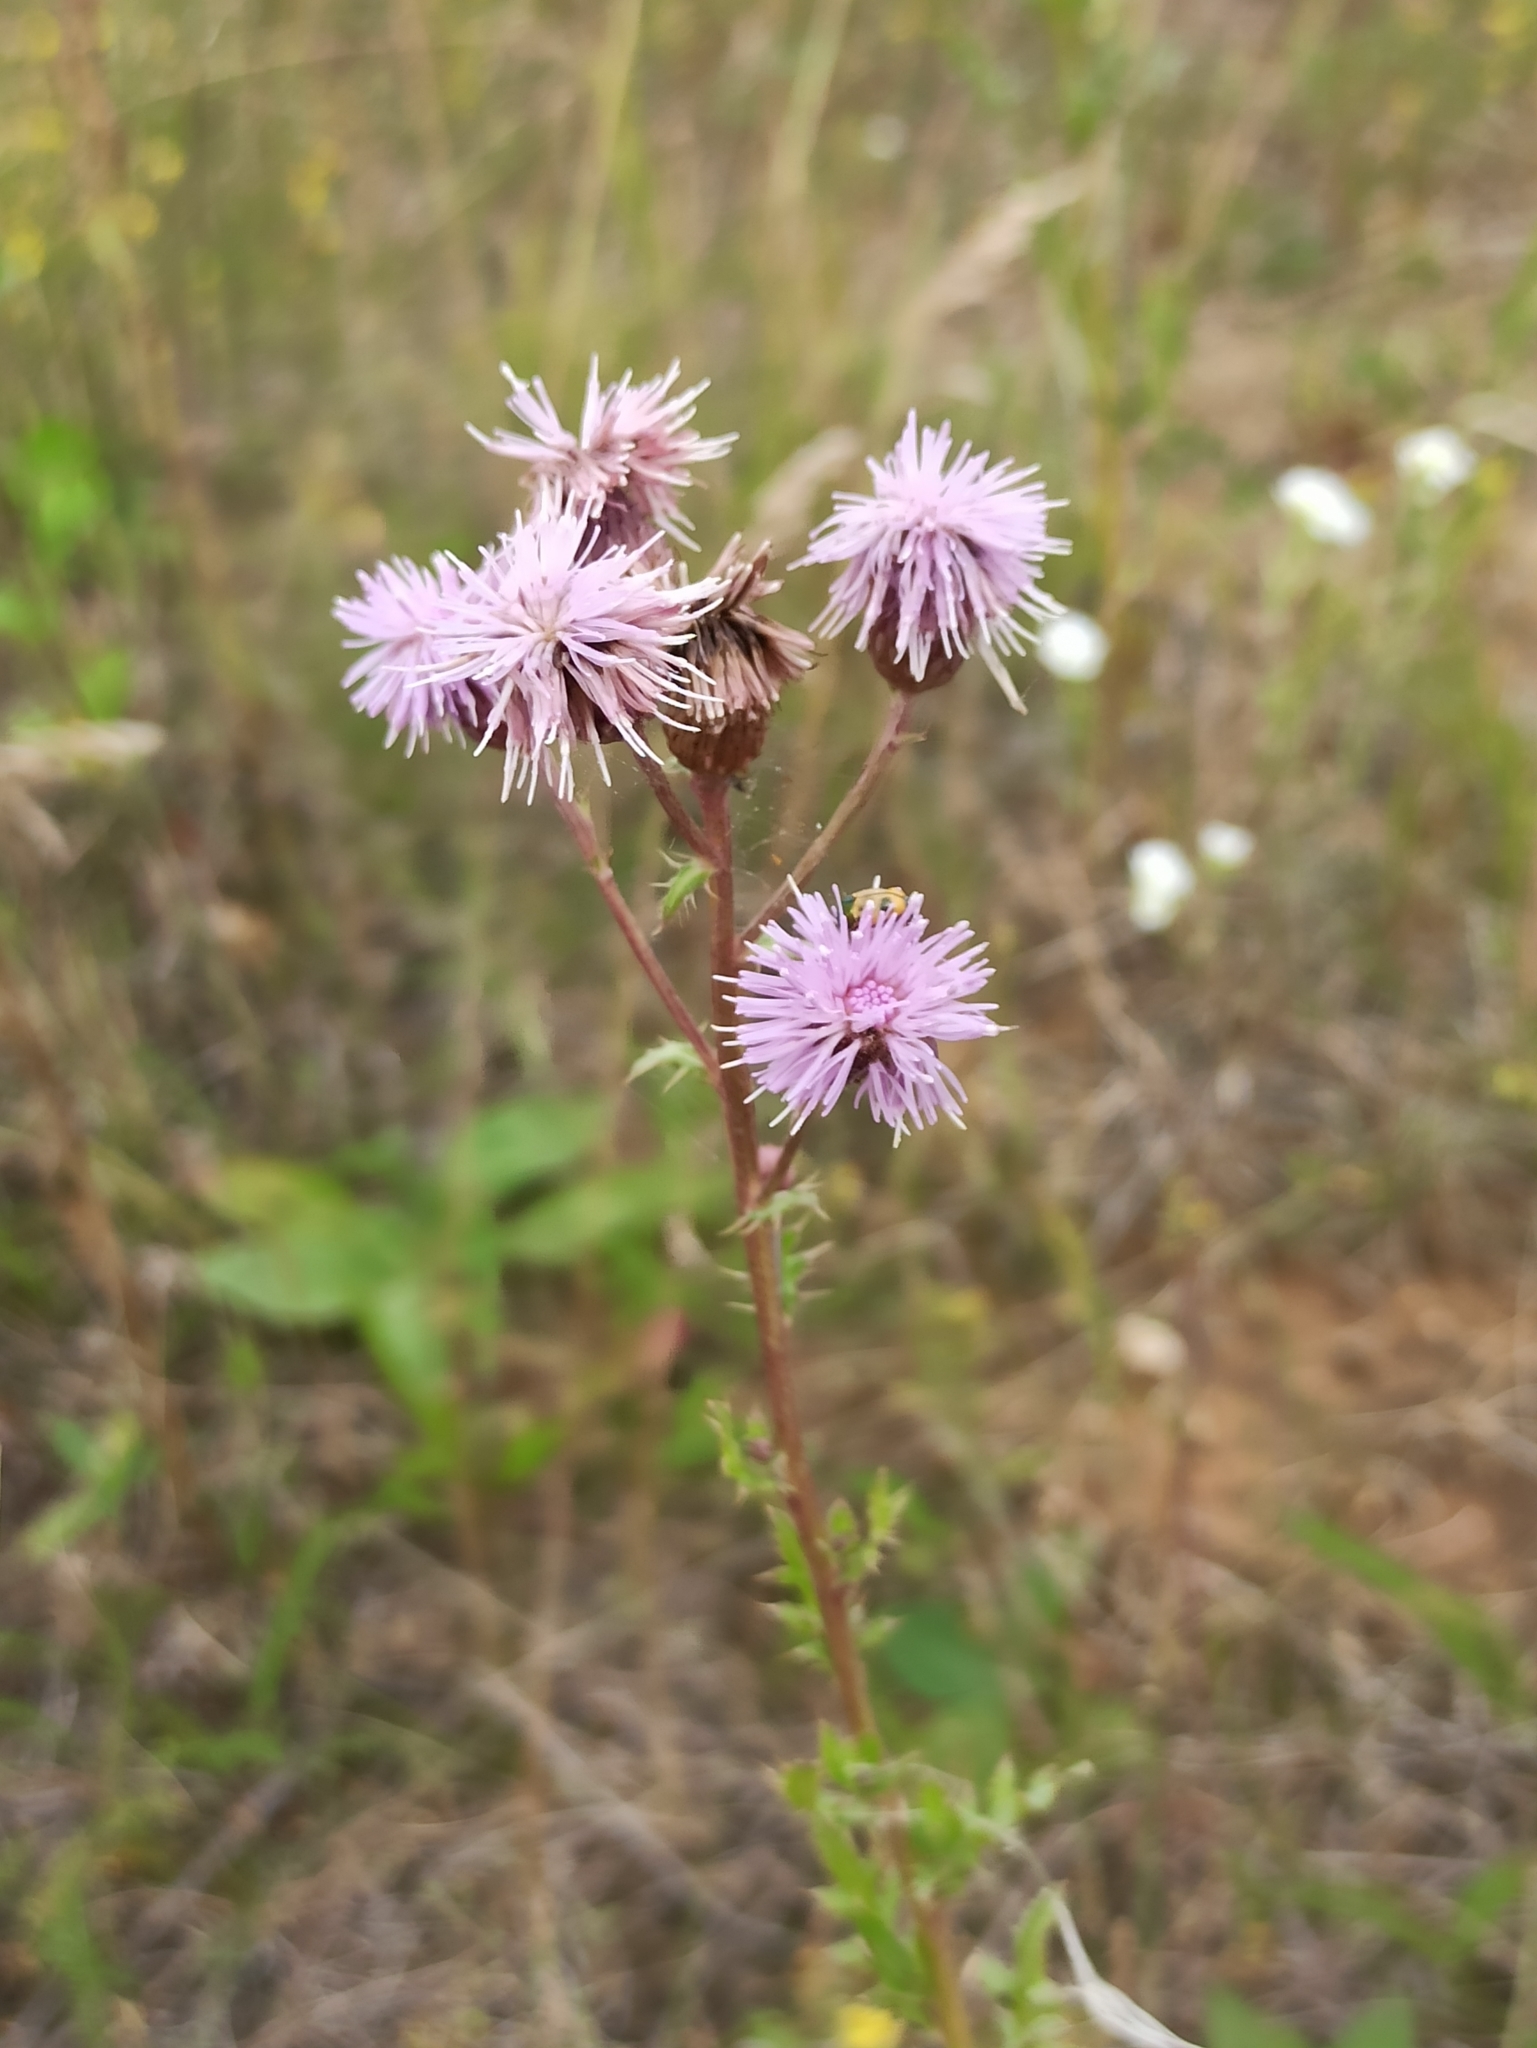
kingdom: Plantae
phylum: Tracheophyta
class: Magnoliopsida
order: Asterales
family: Asteraceae
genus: Cirsium
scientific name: Cirsium arvense
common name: Creeping thistle
